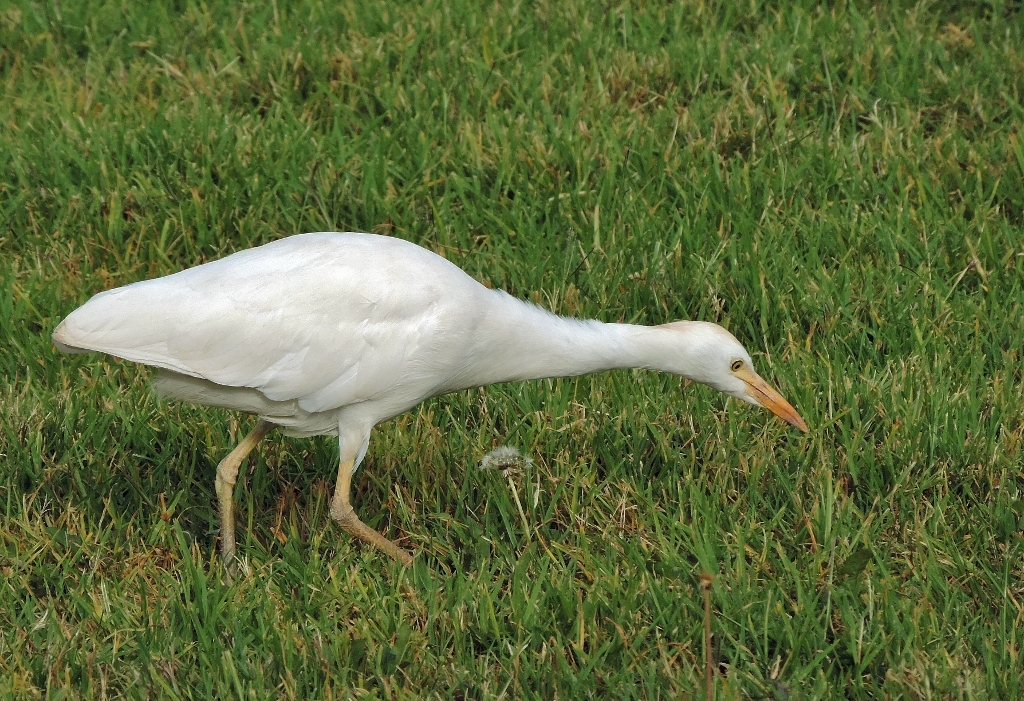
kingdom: Animalia
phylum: Chordata
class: Aves
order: Pelecaniformes
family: Ardeidae
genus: Bubulcus
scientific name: Bubulcus ibis
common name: Cattle egret
